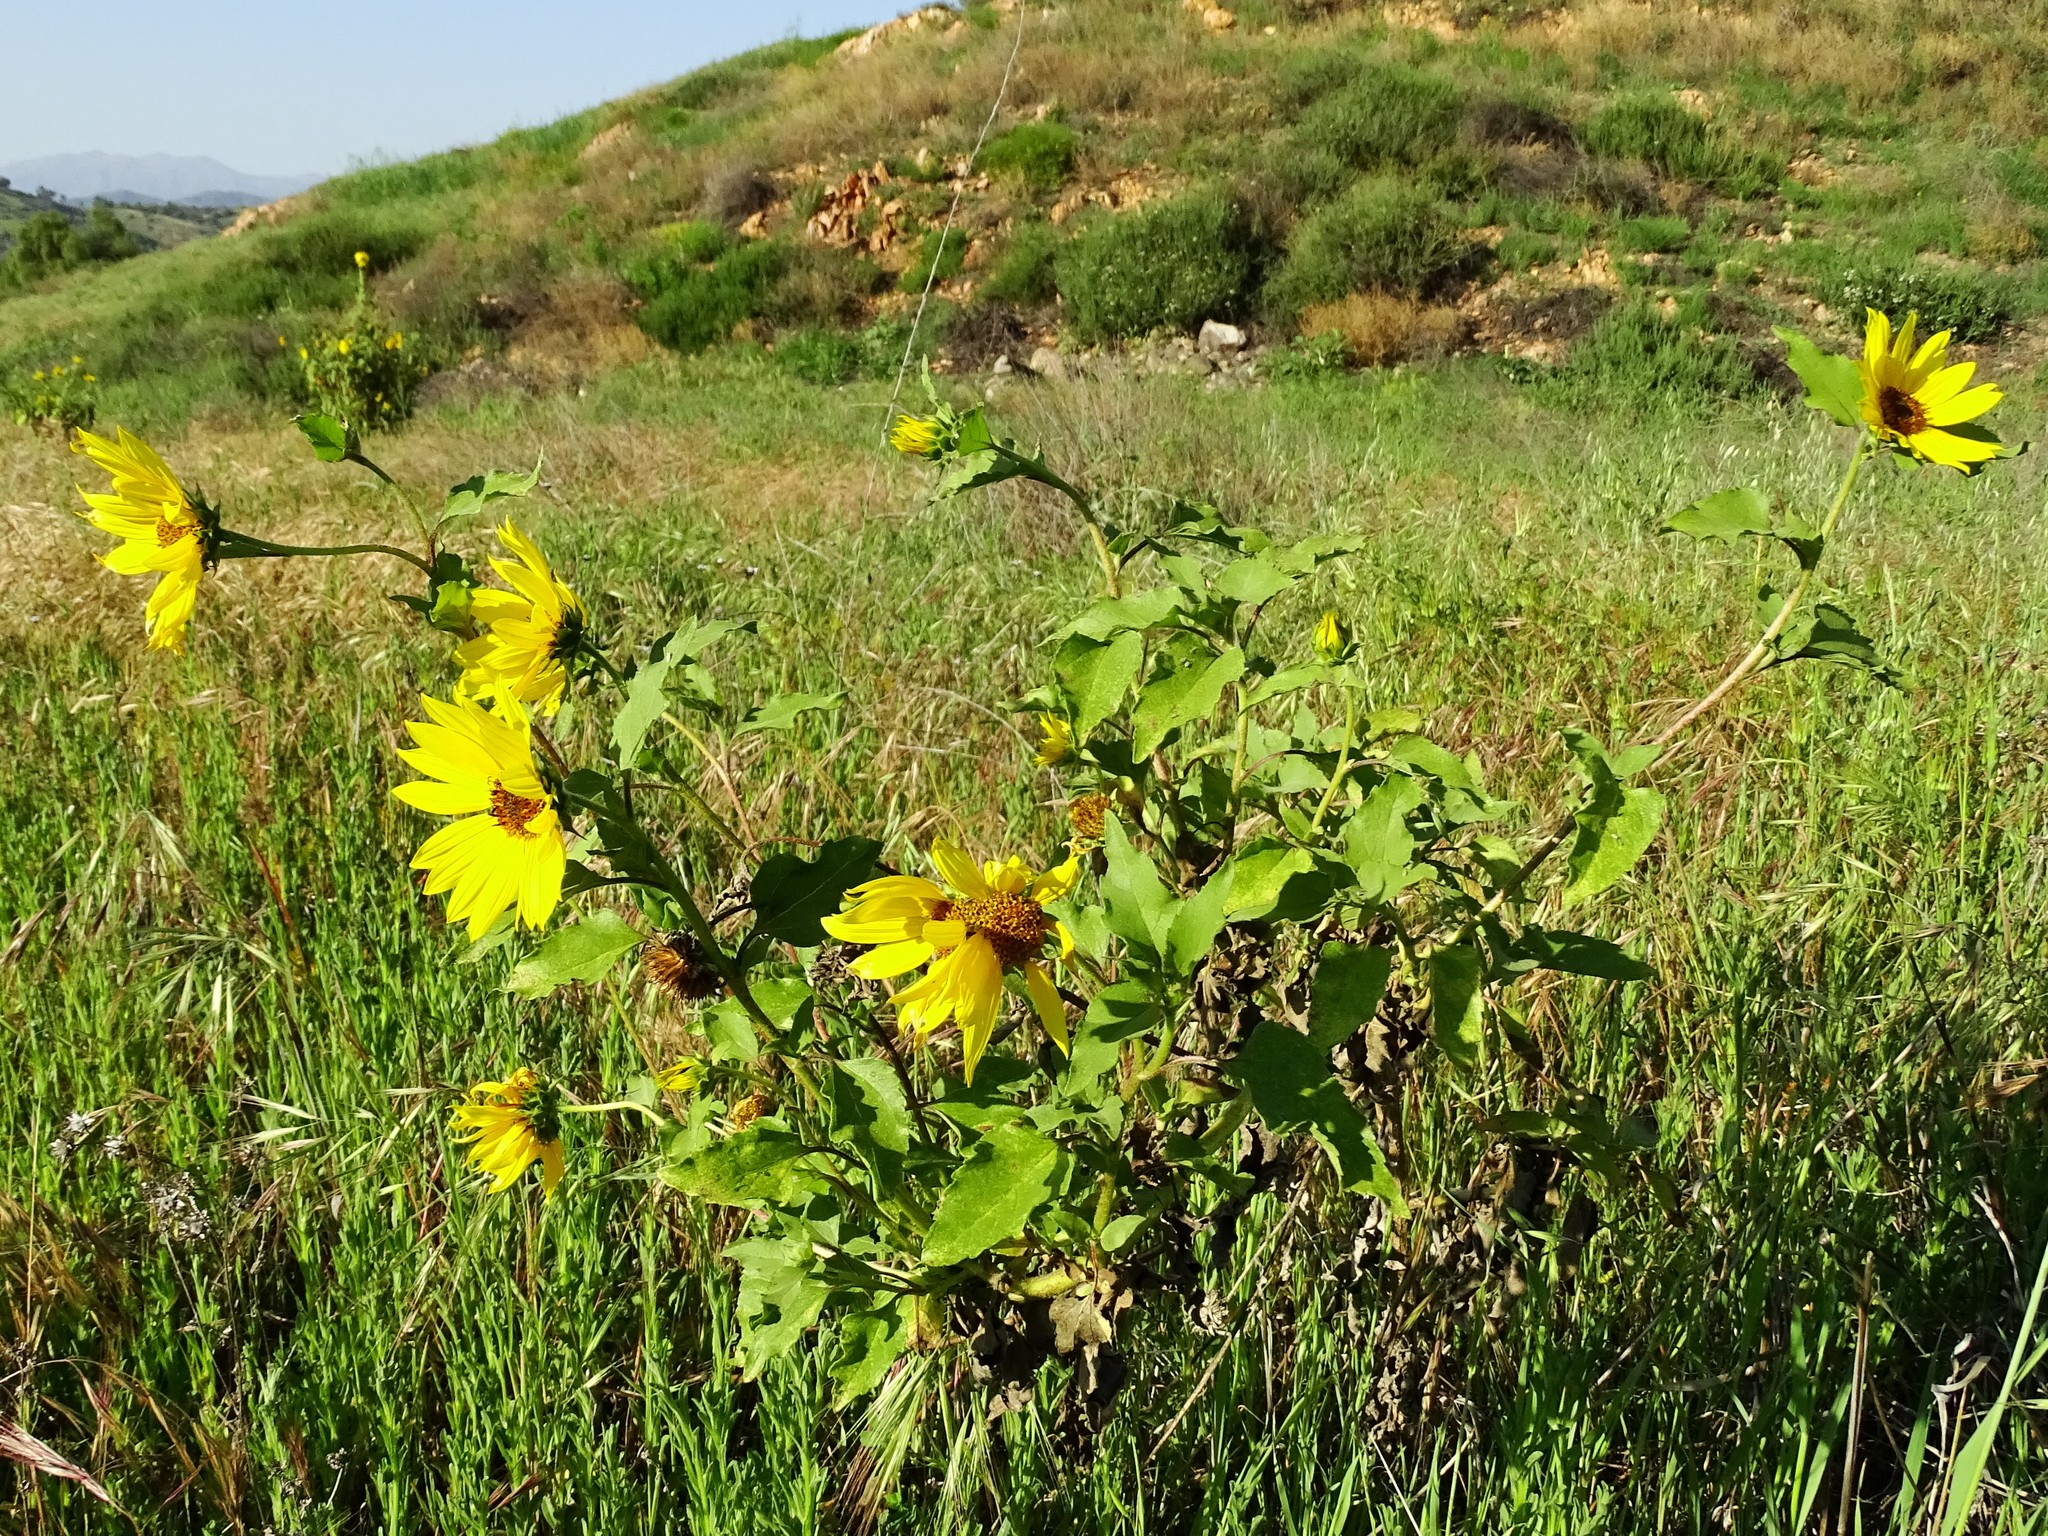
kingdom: Plantae
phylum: Tracheophyta
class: Magnoliopsida
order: Asterales
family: Asteraceae
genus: Helianthus
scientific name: Helianthus annuus
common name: Sunflower
